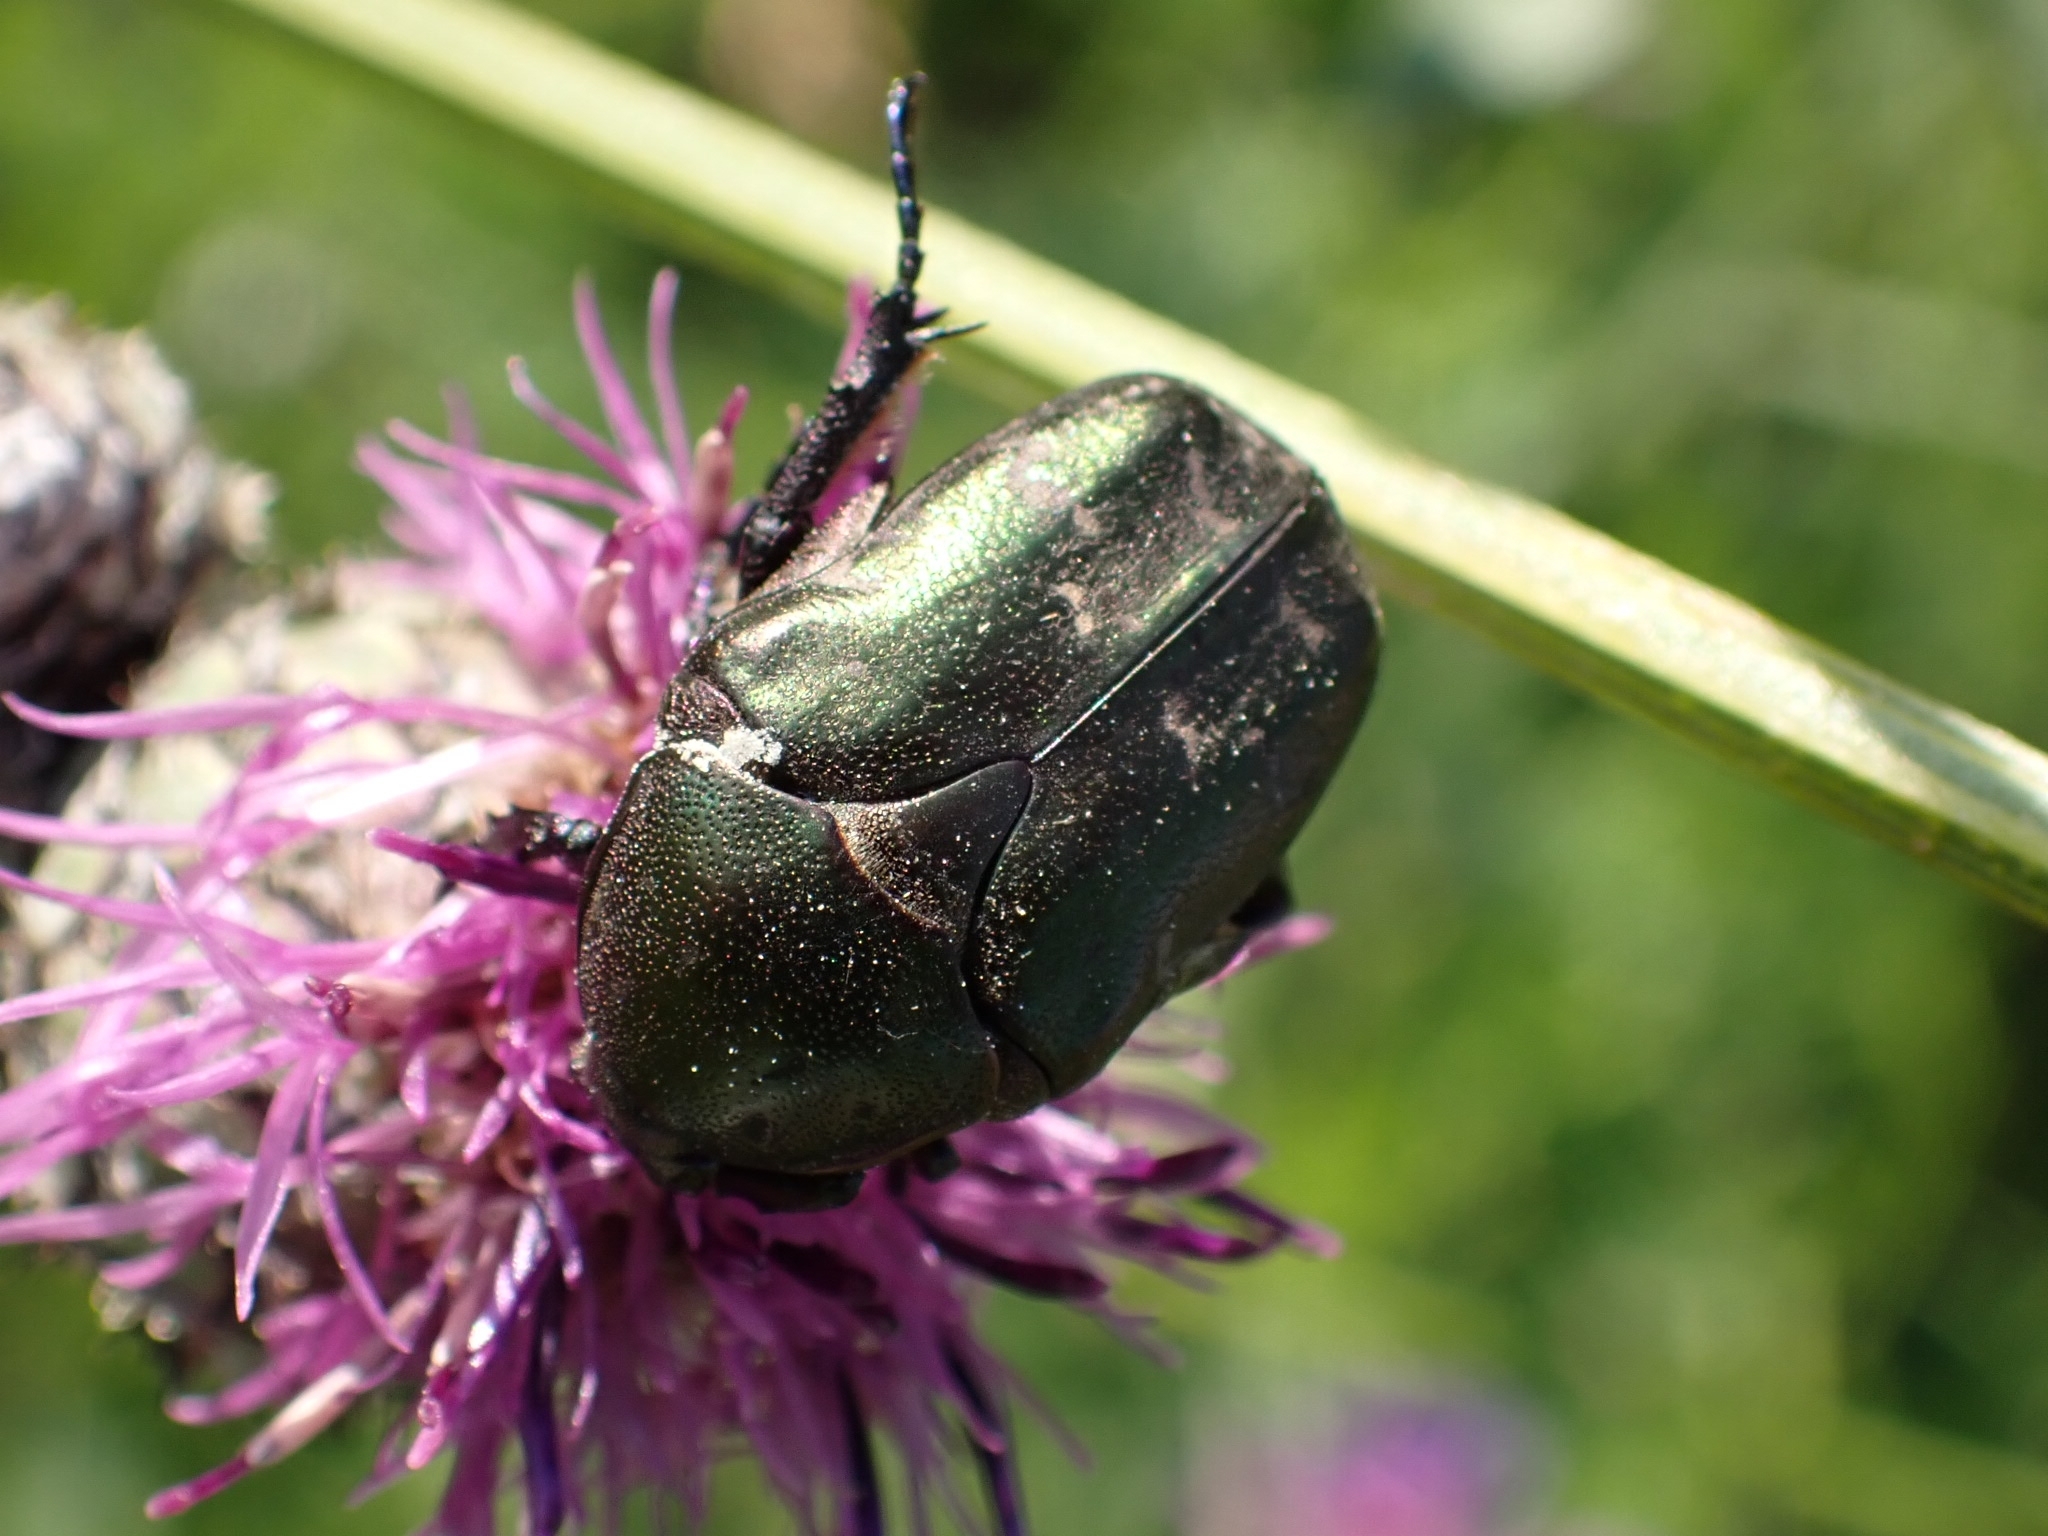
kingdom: Animalia
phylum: Arthropoda
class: Insecta
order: Coleoptera
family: Scarabaeidae
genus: Protaetia
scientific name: Protaetia cuprea
